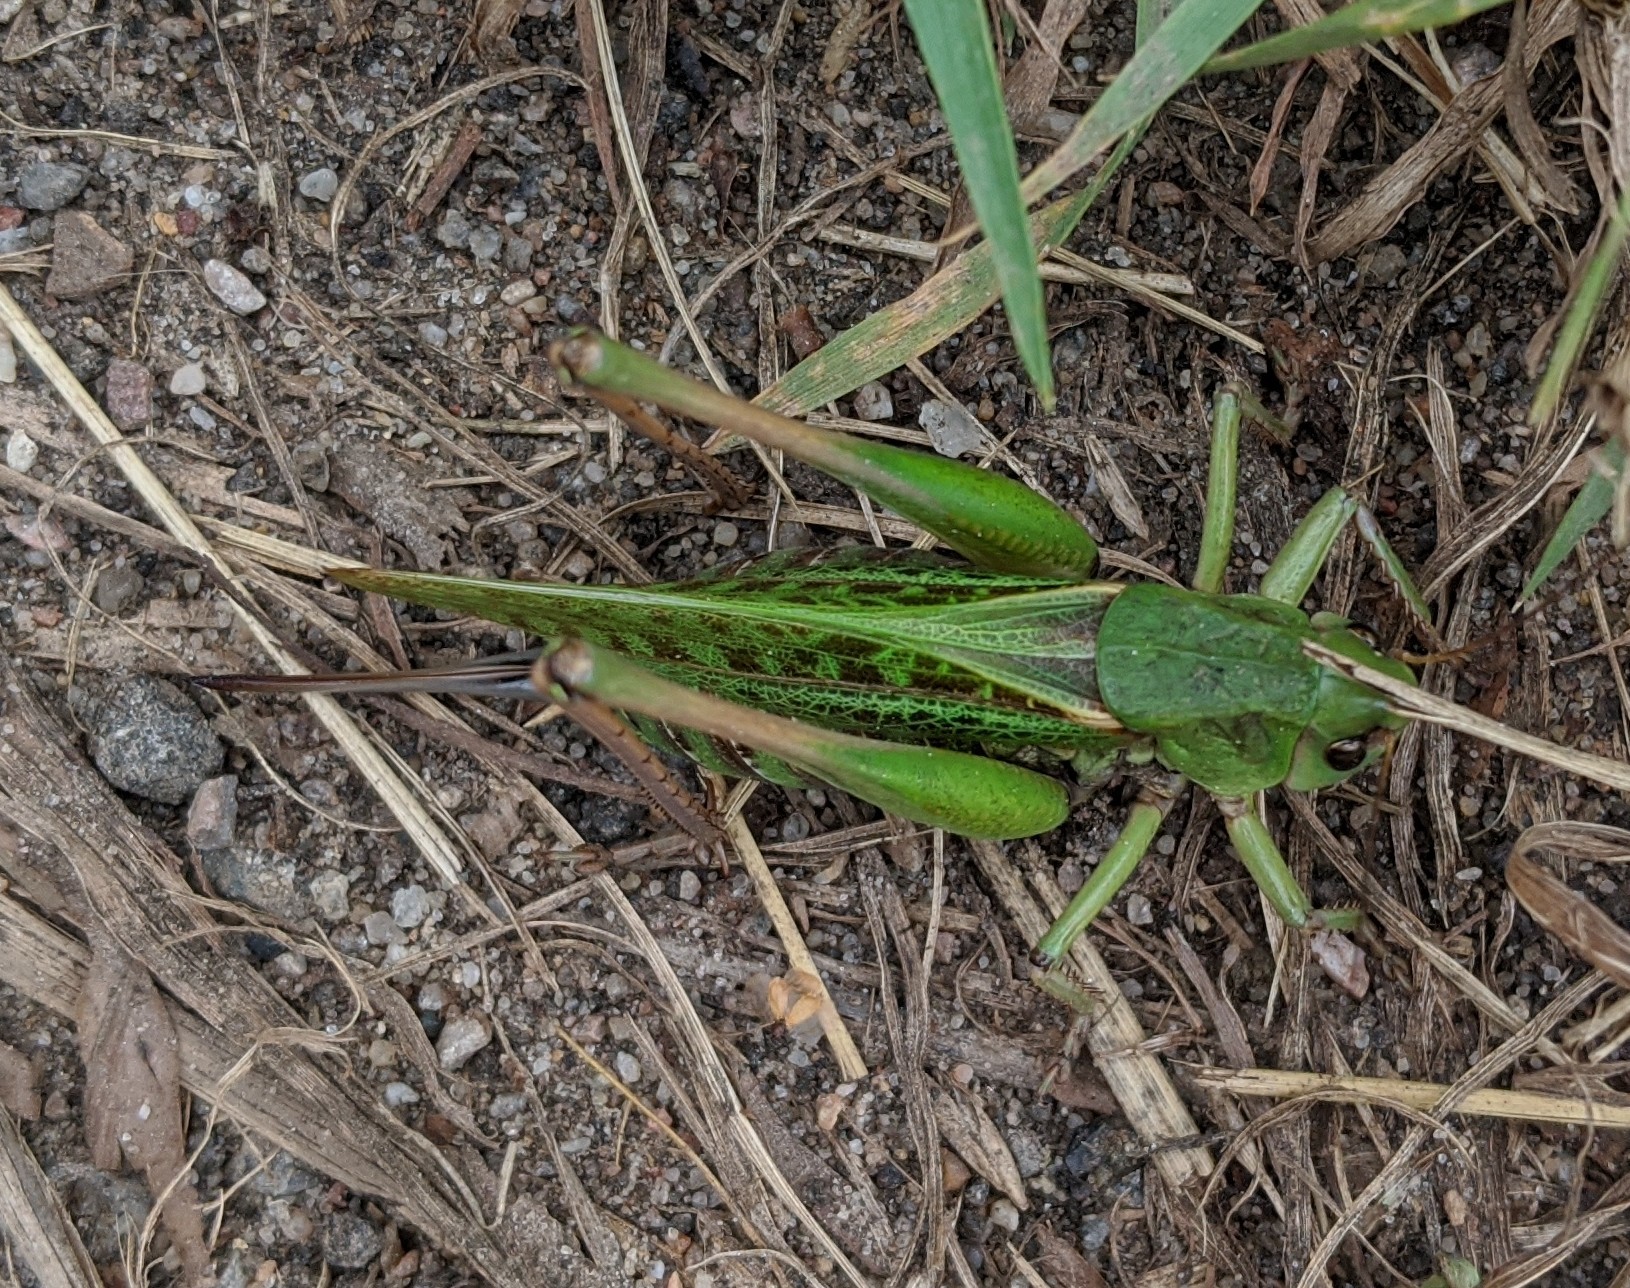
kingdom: Animalia
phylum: Arthropoda
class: Insecta
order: Orthoptera
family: Tettigoniidae
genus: Decticus
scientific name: Decticus verrucivorus
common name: Wart-biter
